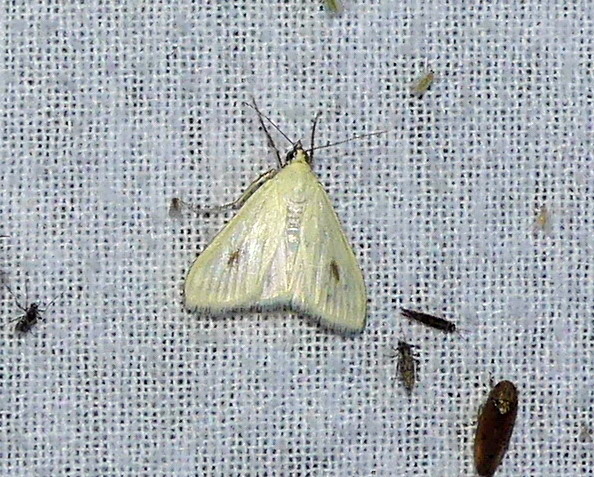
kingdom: Animalia
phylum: Arthropoda
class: Insecta
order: Lepidoptera
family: Crambidae
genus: Sitochroa
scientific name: Sitochroa palealis
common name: Greenish-yellow sitochroa moth
